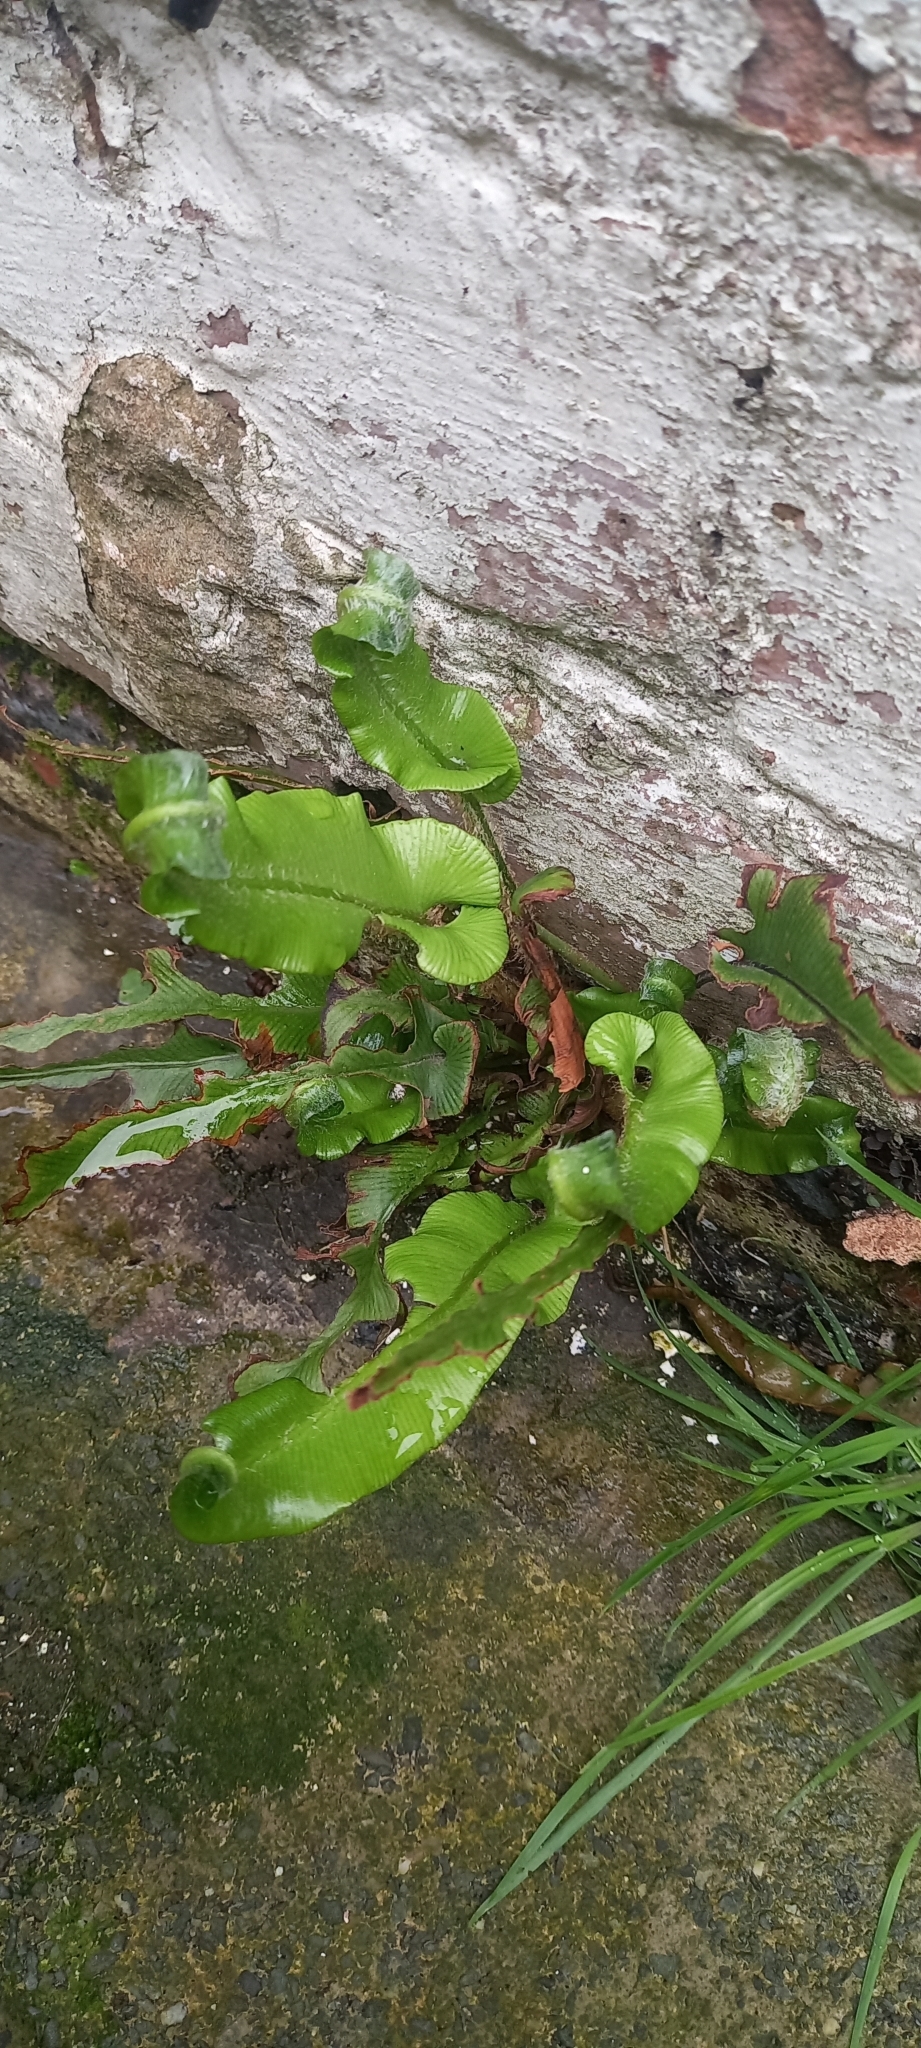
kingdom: Plantae
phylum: Tracheophyta
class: Polypodiopsida
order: Polypodiales
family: Aspleniaceae
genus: Asplenium
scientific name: Asplenium scolopendrium
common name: Hart's-tongue fern
